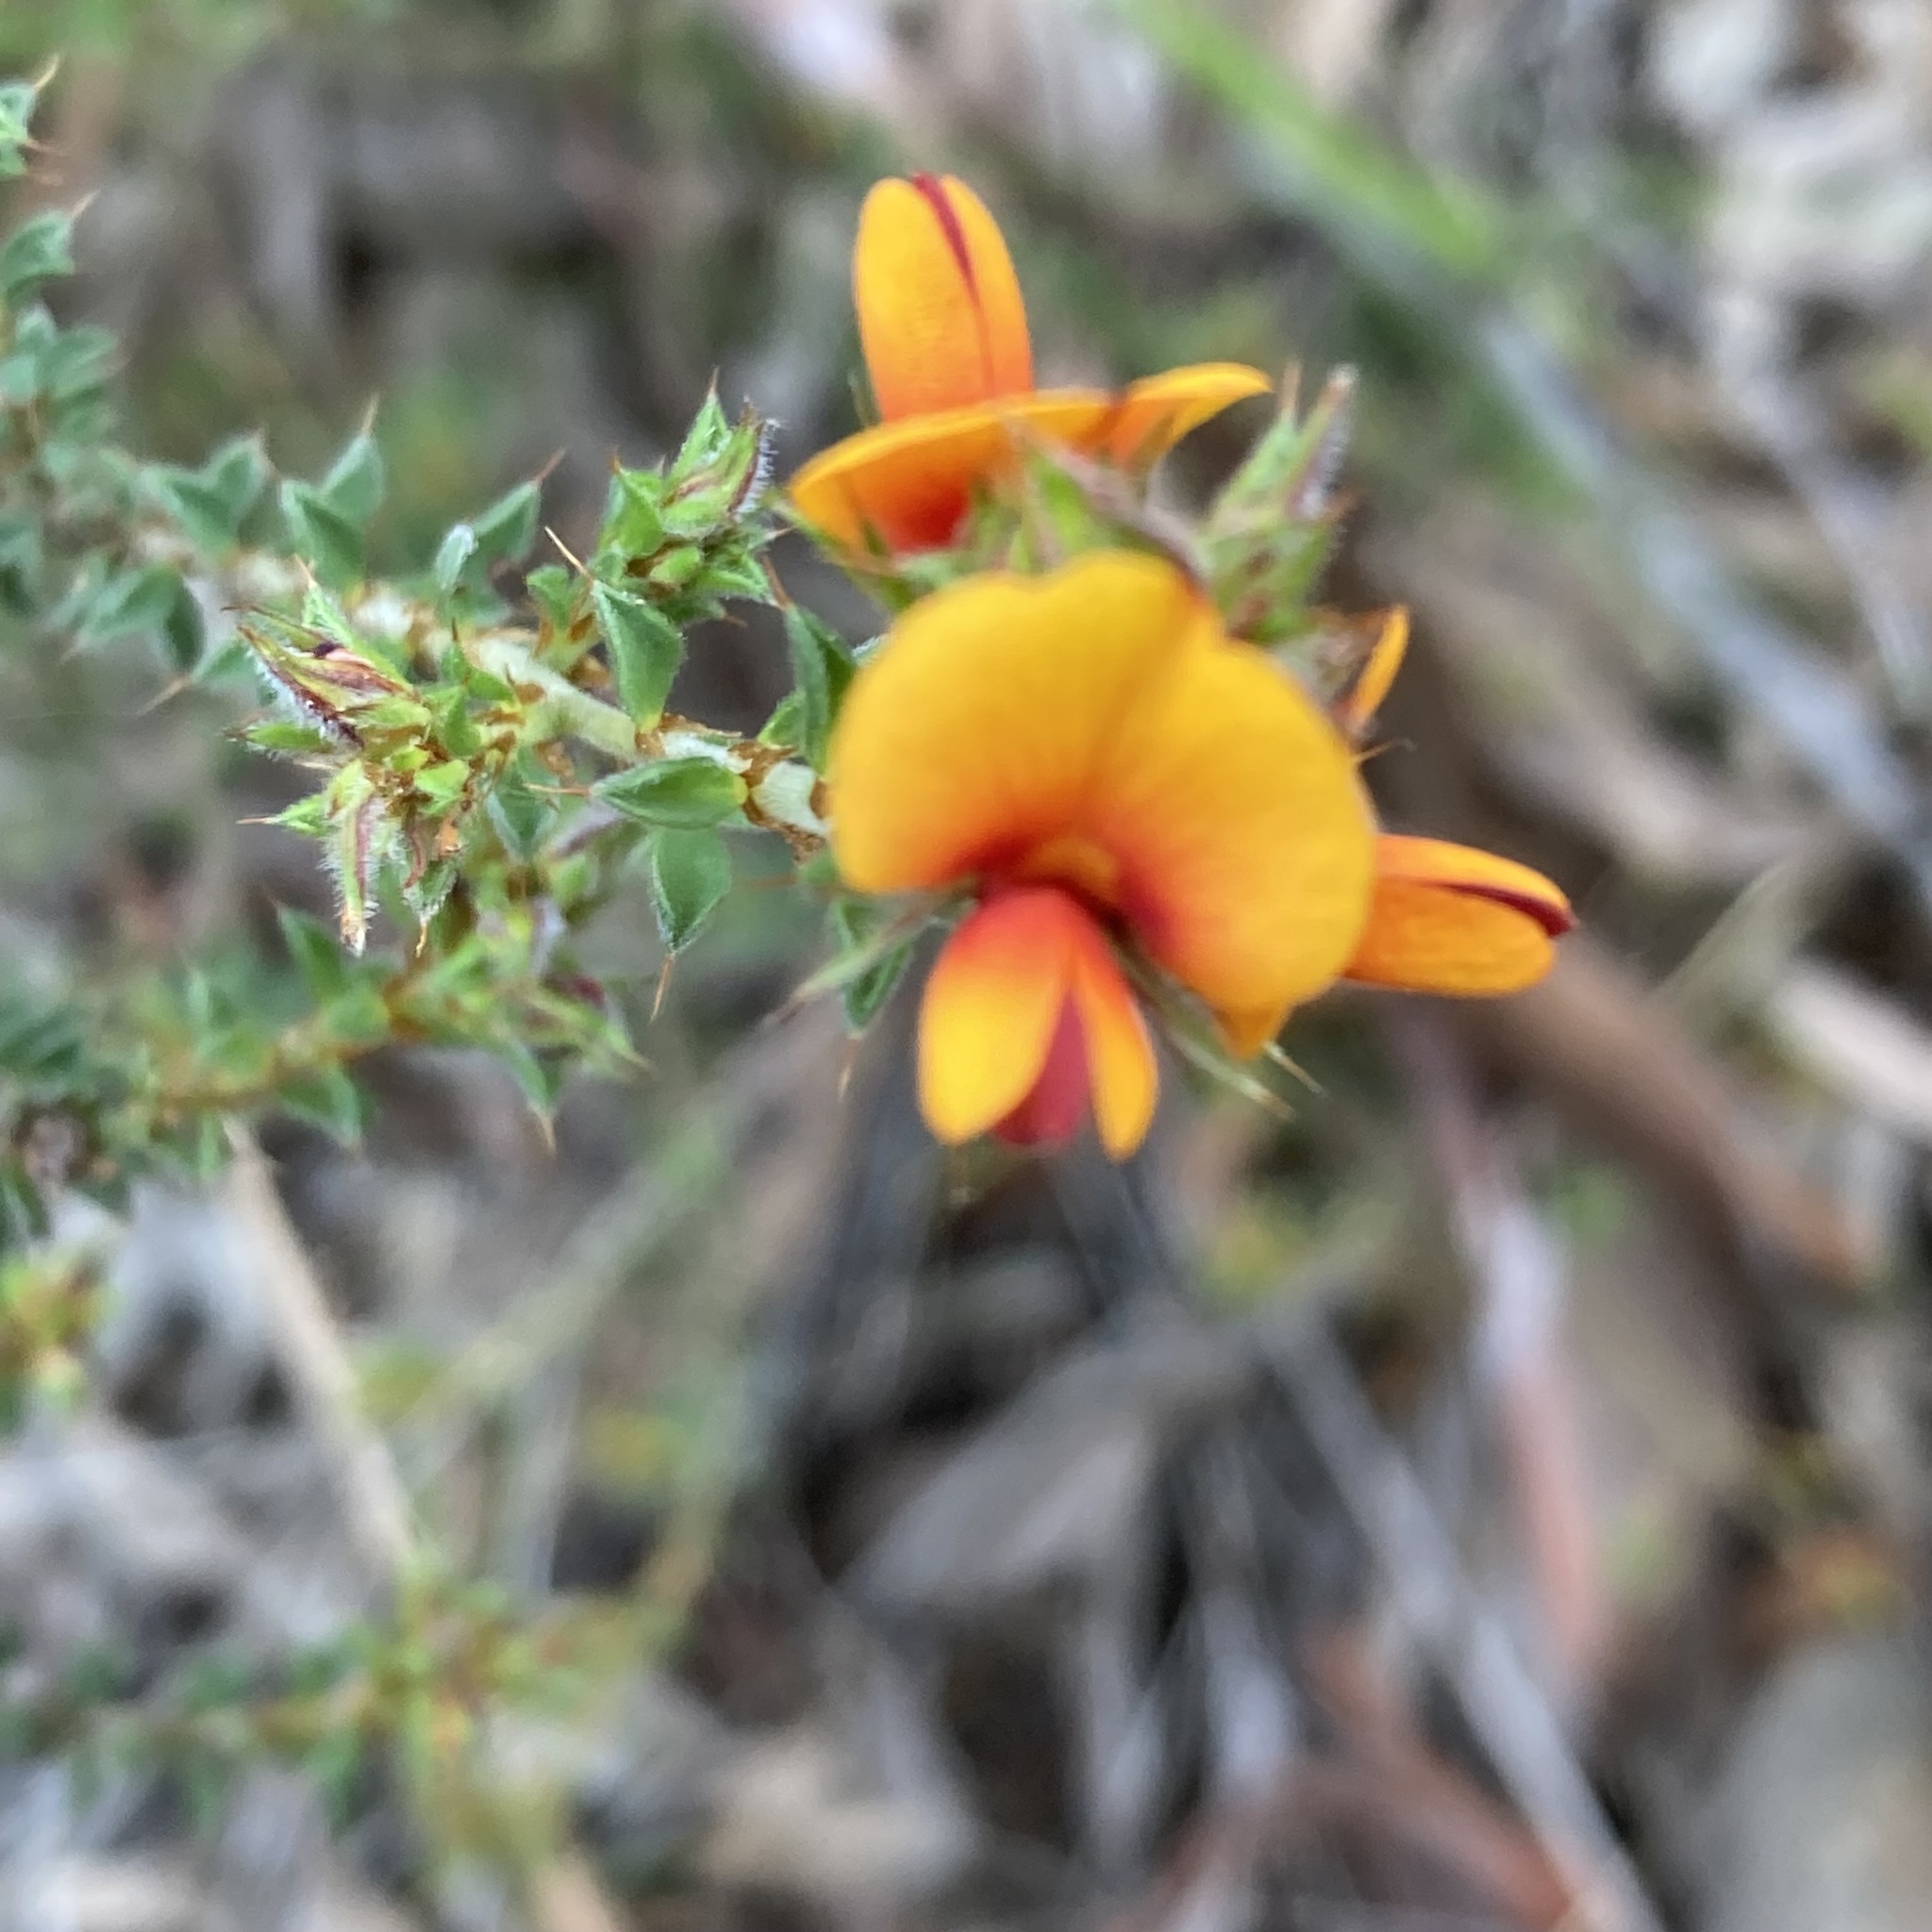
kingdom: Plantae
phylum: Tracheophyta
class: Magnoliopsida
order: Fabales
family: Fabaceae
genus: Pultenaea
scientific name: Pultenaea procumbens
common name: Heathy bush-pea
